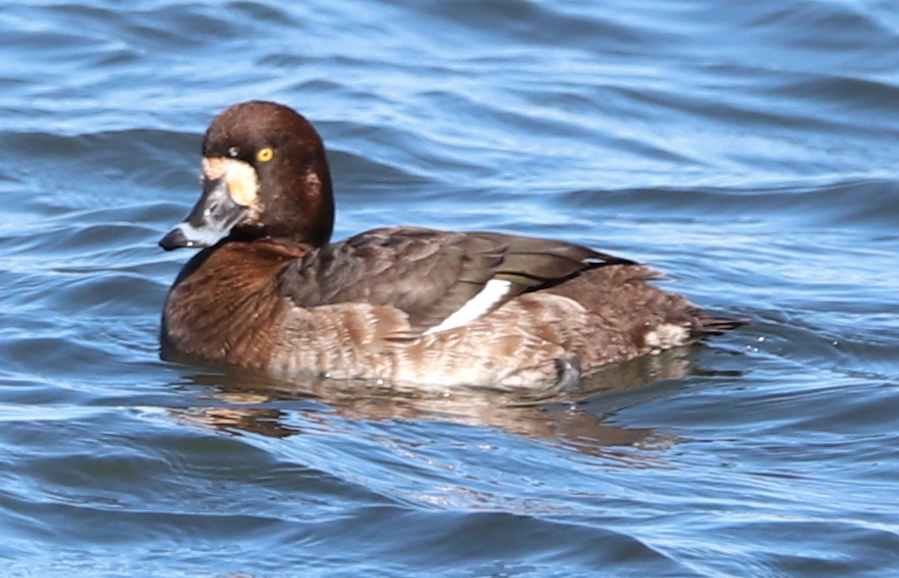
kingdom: Animalia
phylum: Chordata
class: Aves
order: Anseriformes
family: Anatidae
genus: Aythya
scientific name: Aythya marila
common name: Greater scaup
